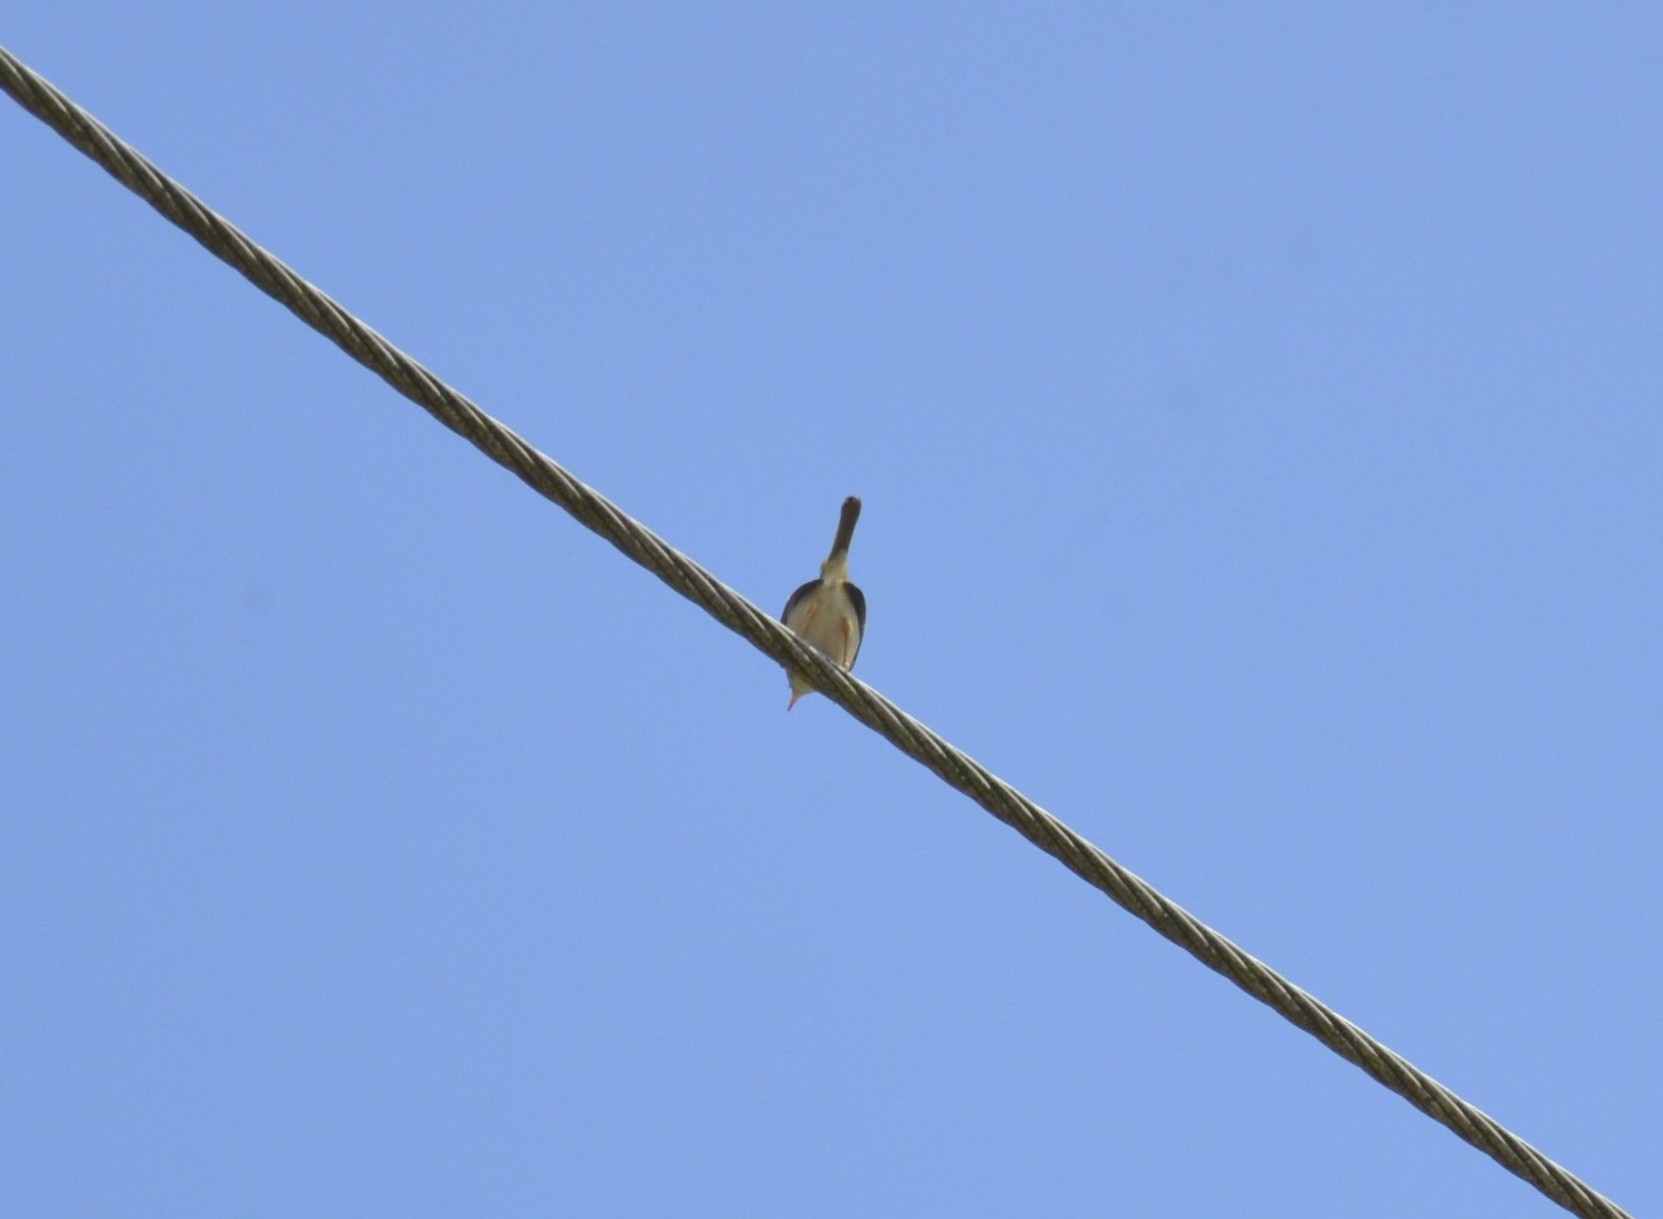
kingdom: Animalia
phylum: Chordata
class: Aves
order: Passeriformes
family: Cisticolidae
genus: Orthotomus
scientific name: Orthotomus sutorius
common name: Common tailorbird
